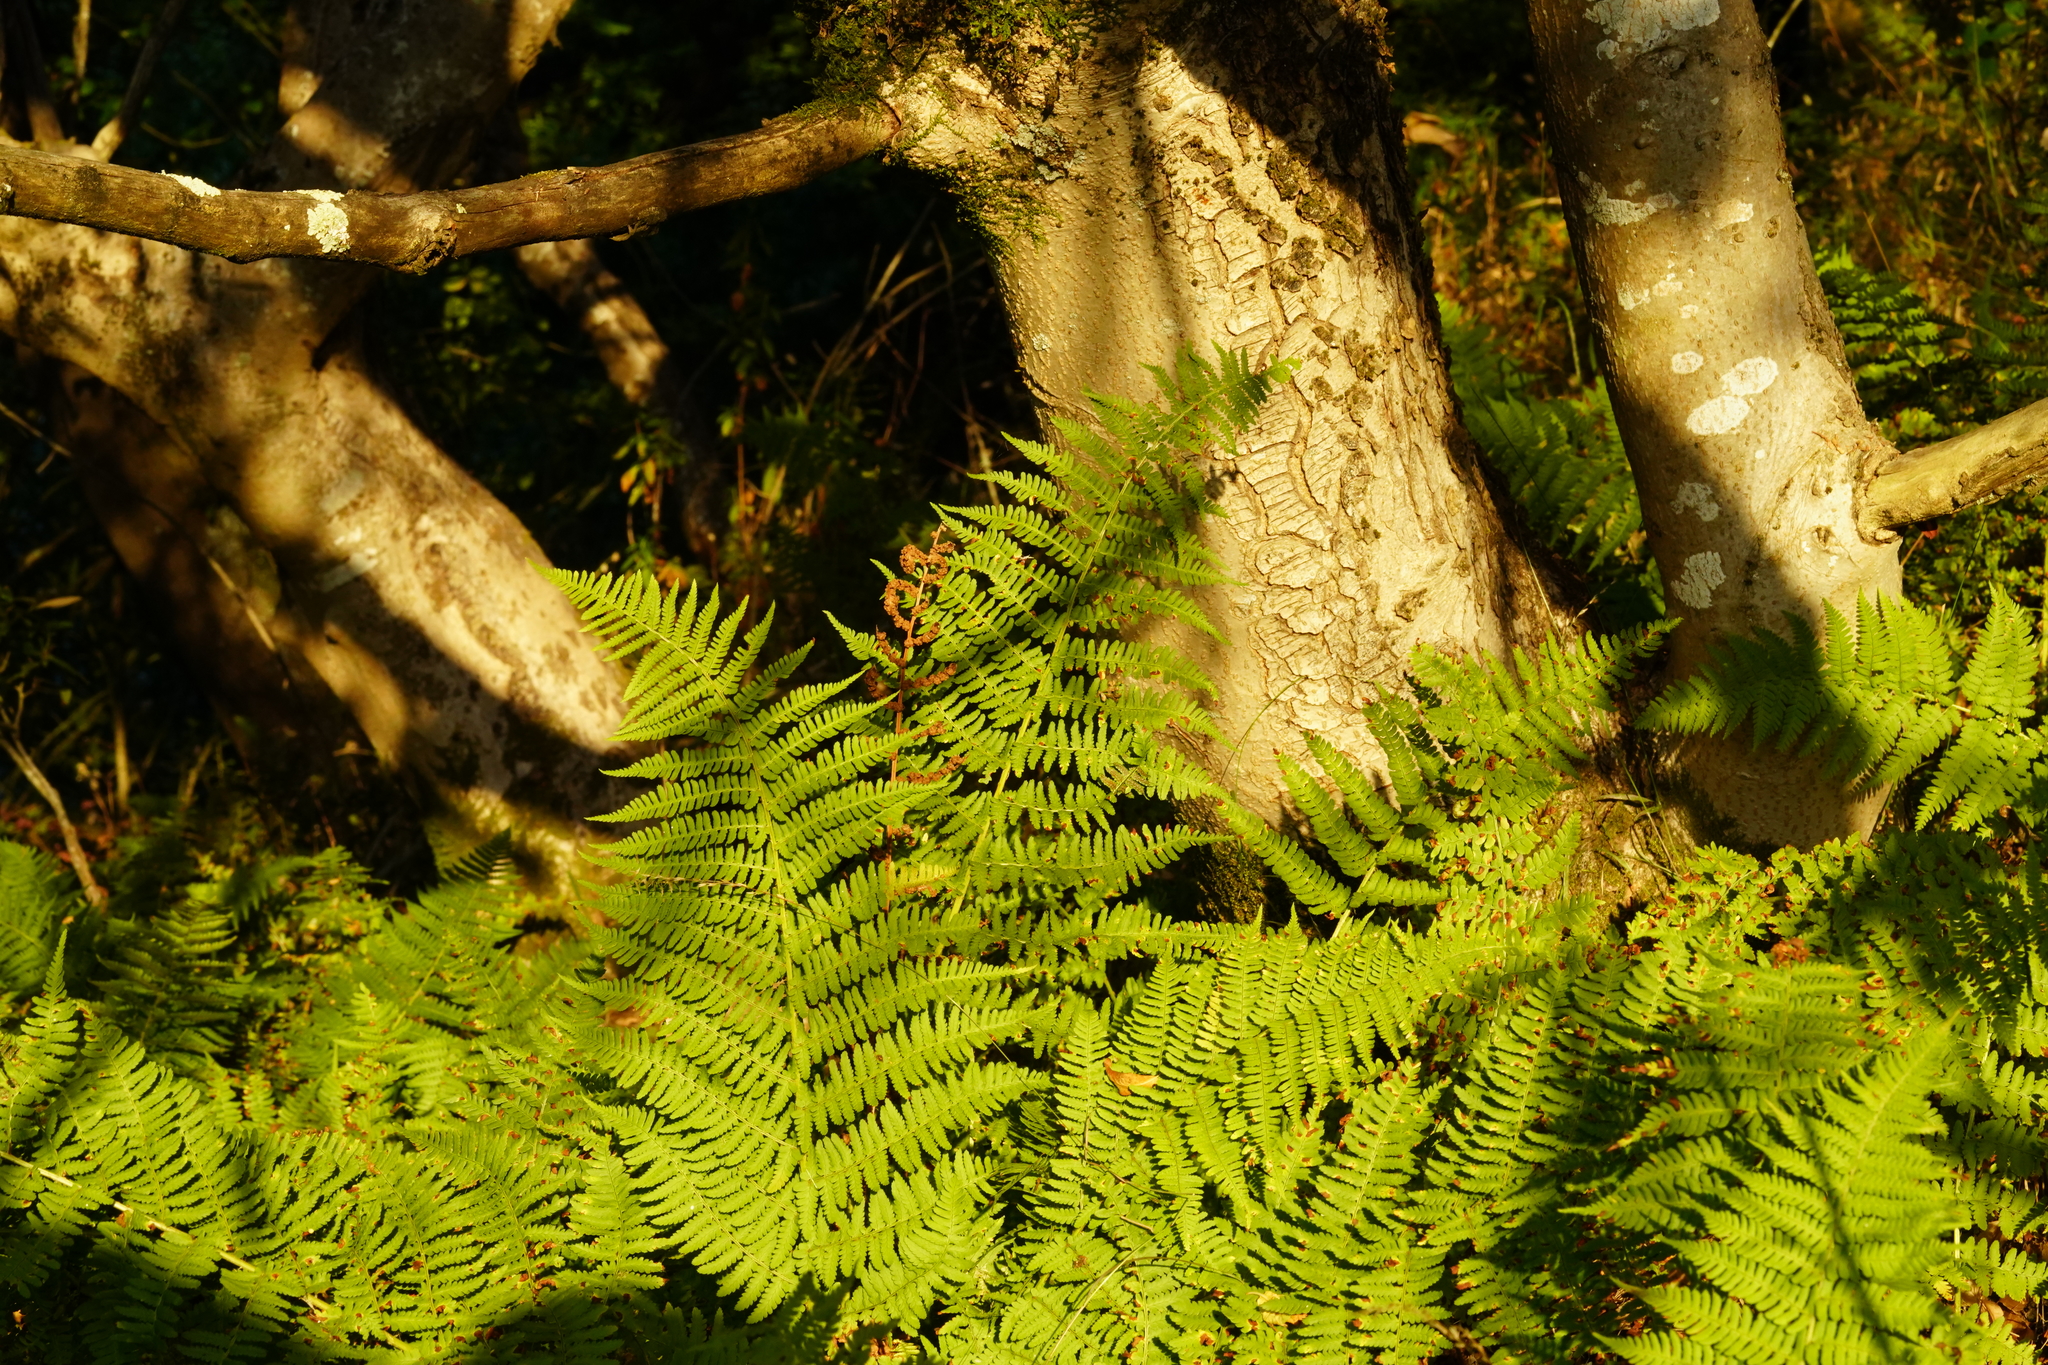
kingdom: Plantae
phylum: Tracheophyta
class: Polypodiopsida
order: Polypodiales
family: Athyriaceae
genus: Athyrium
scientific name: Athyrium cyclosorum
